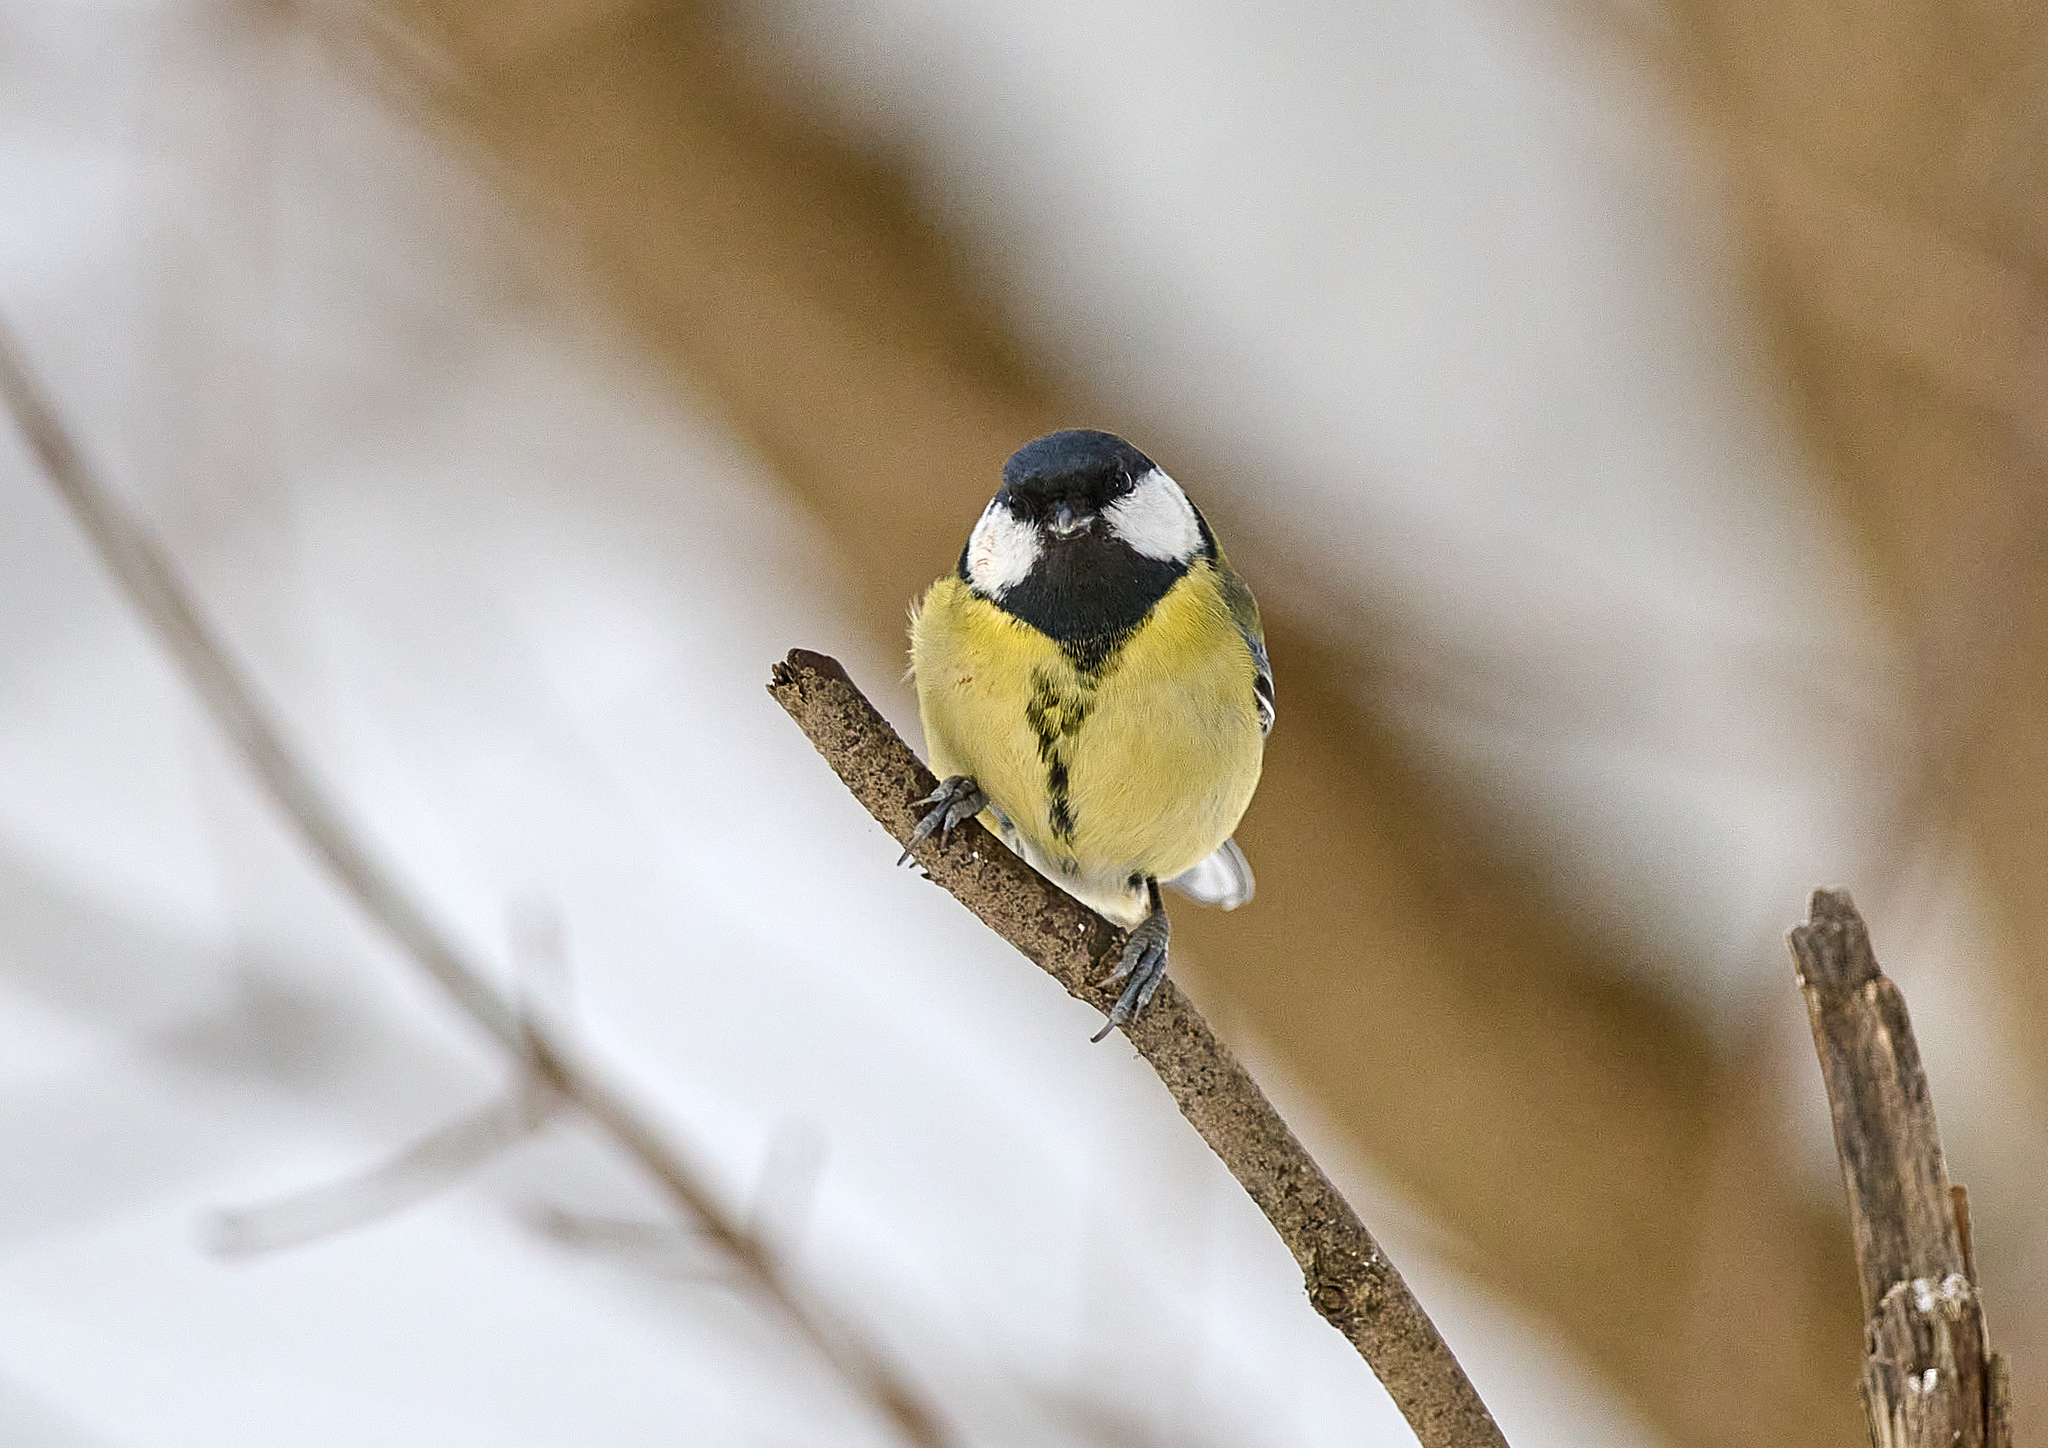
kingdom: Animalia
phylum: Chordata
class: Aves
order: Passeriformes
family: Paridae
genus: Parus
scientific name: Parus major
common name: Great tit
